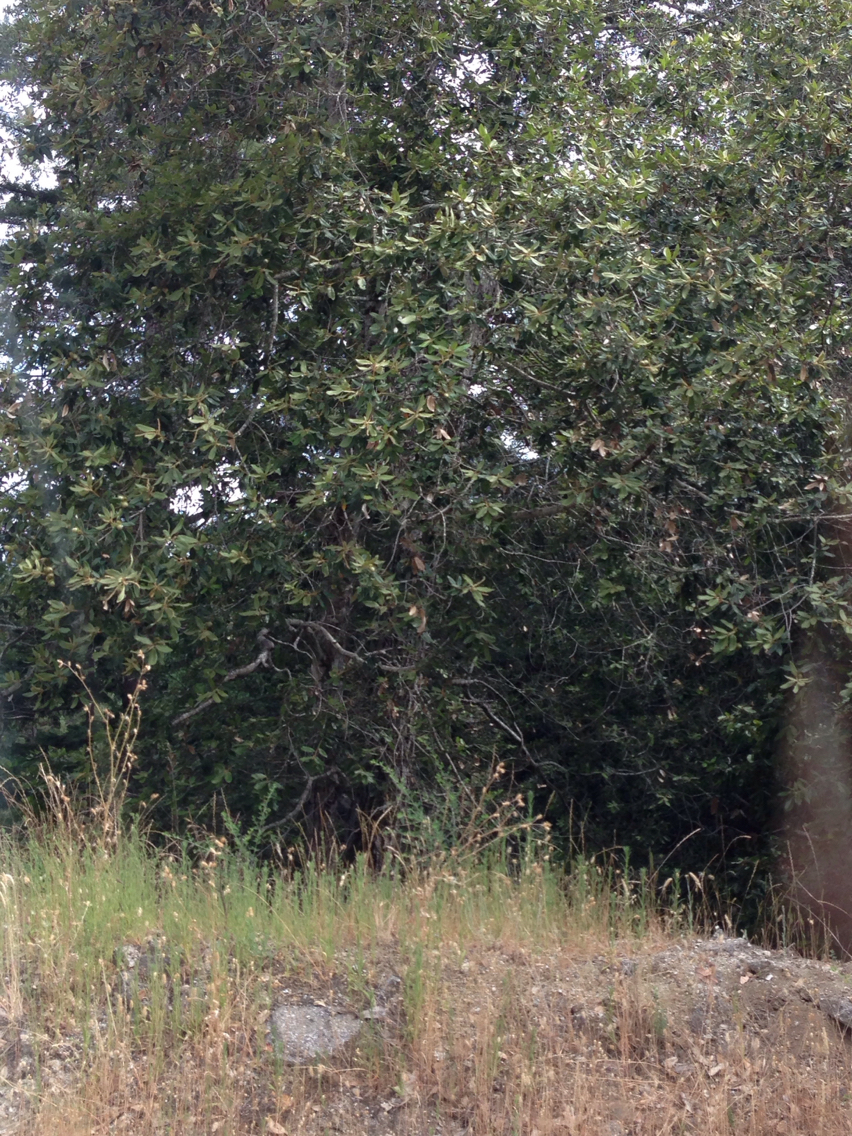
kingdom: Plantae
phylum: Tracheophyta
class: Magnoliopsida
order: Fagales
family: Fagaceae
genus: Notholithocarpus
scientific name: Notholithocarpus densiflorus
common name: Tan bark oak
